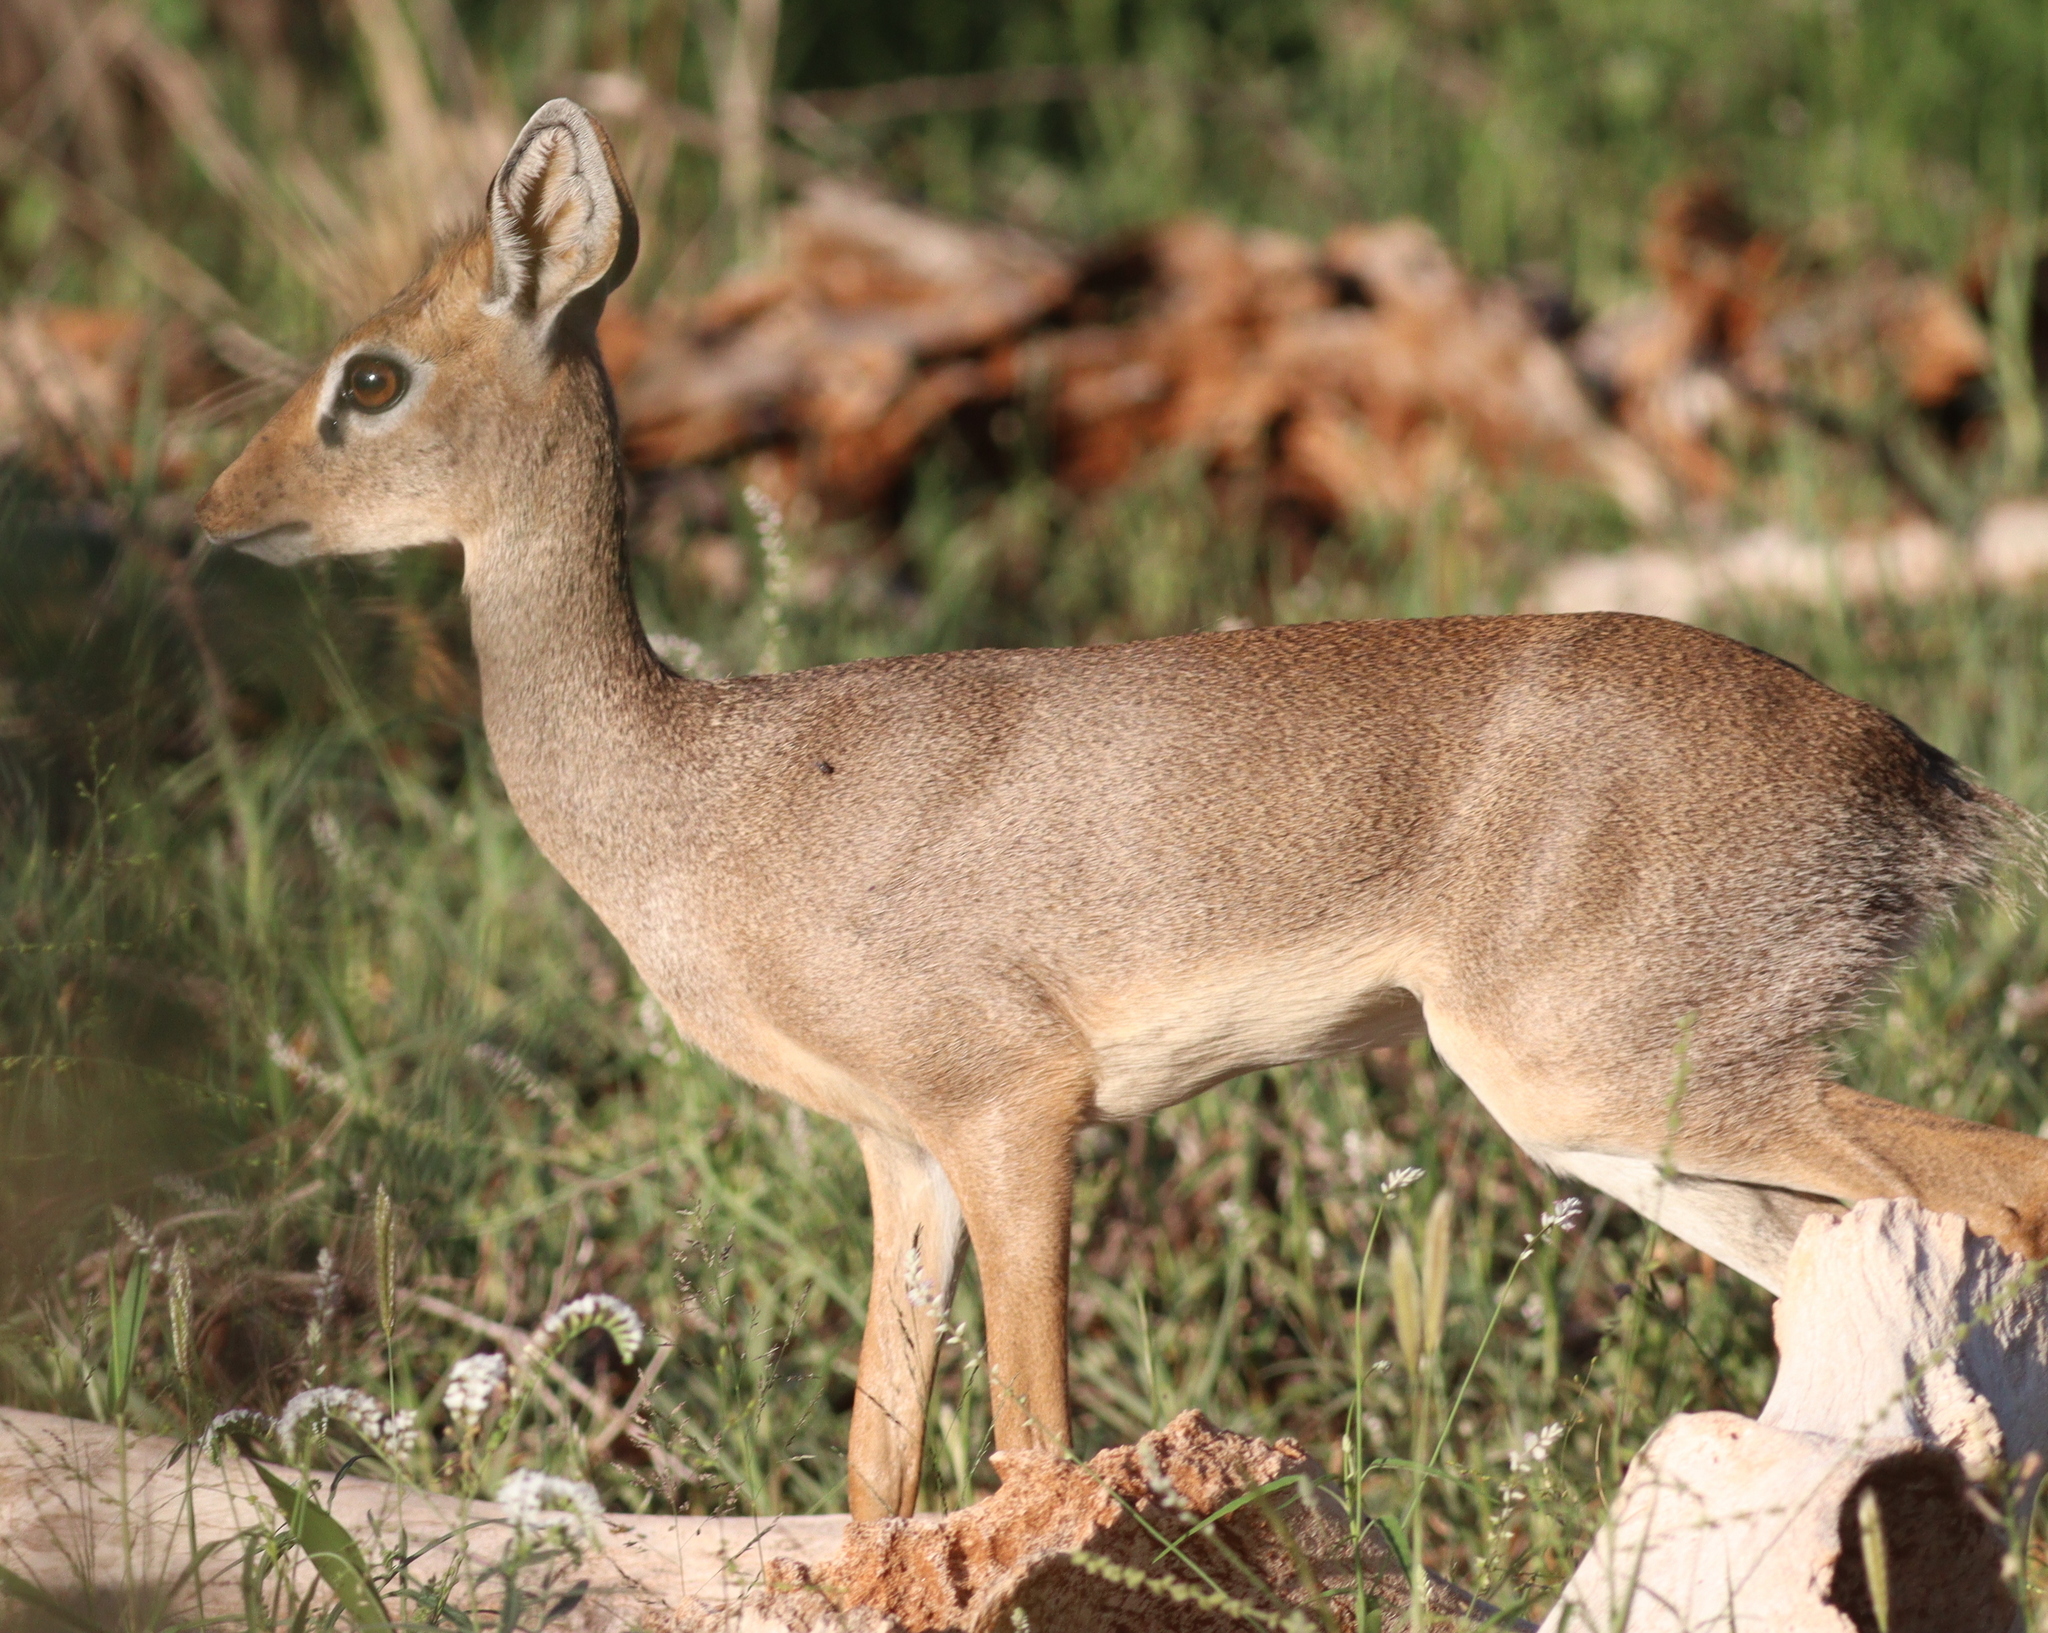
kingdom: Animalia
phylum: Chordata
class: Mammalia
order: Artiodactyla
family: Bovidae
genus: Madoqua
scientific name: Madoqua kirkii
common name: Kirk's dik-dik
